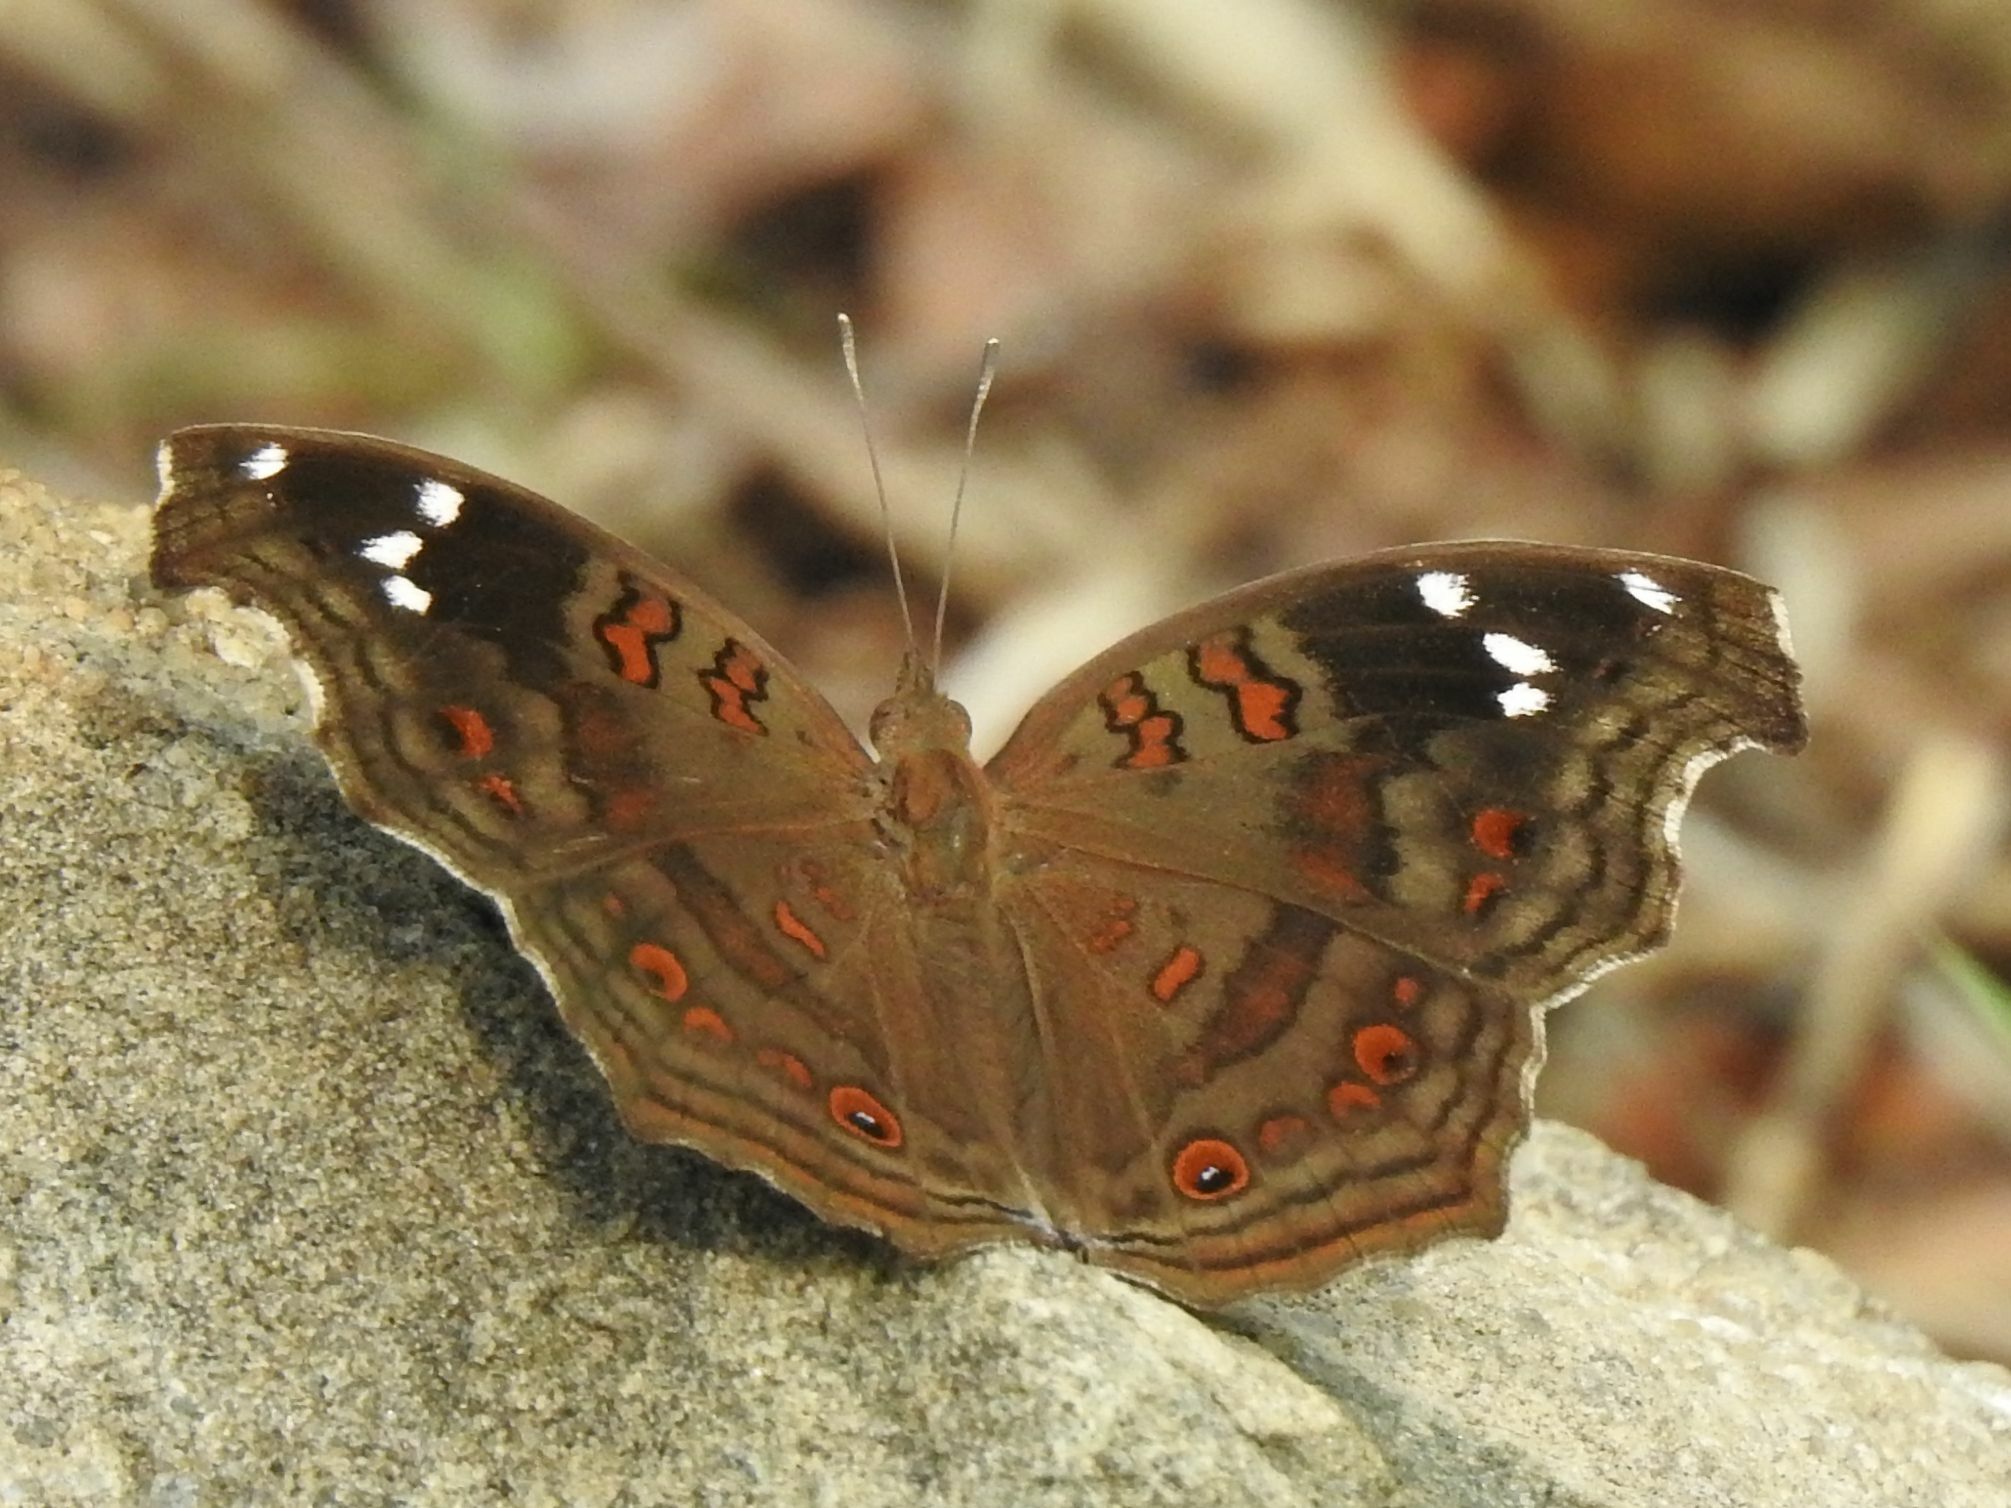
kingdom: Animalia
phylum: Arthropoda
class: Insecta
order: Lepidoptera
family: Nymphalidae
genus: Junonia
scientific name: Junonia natalica
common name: Brown pansy
